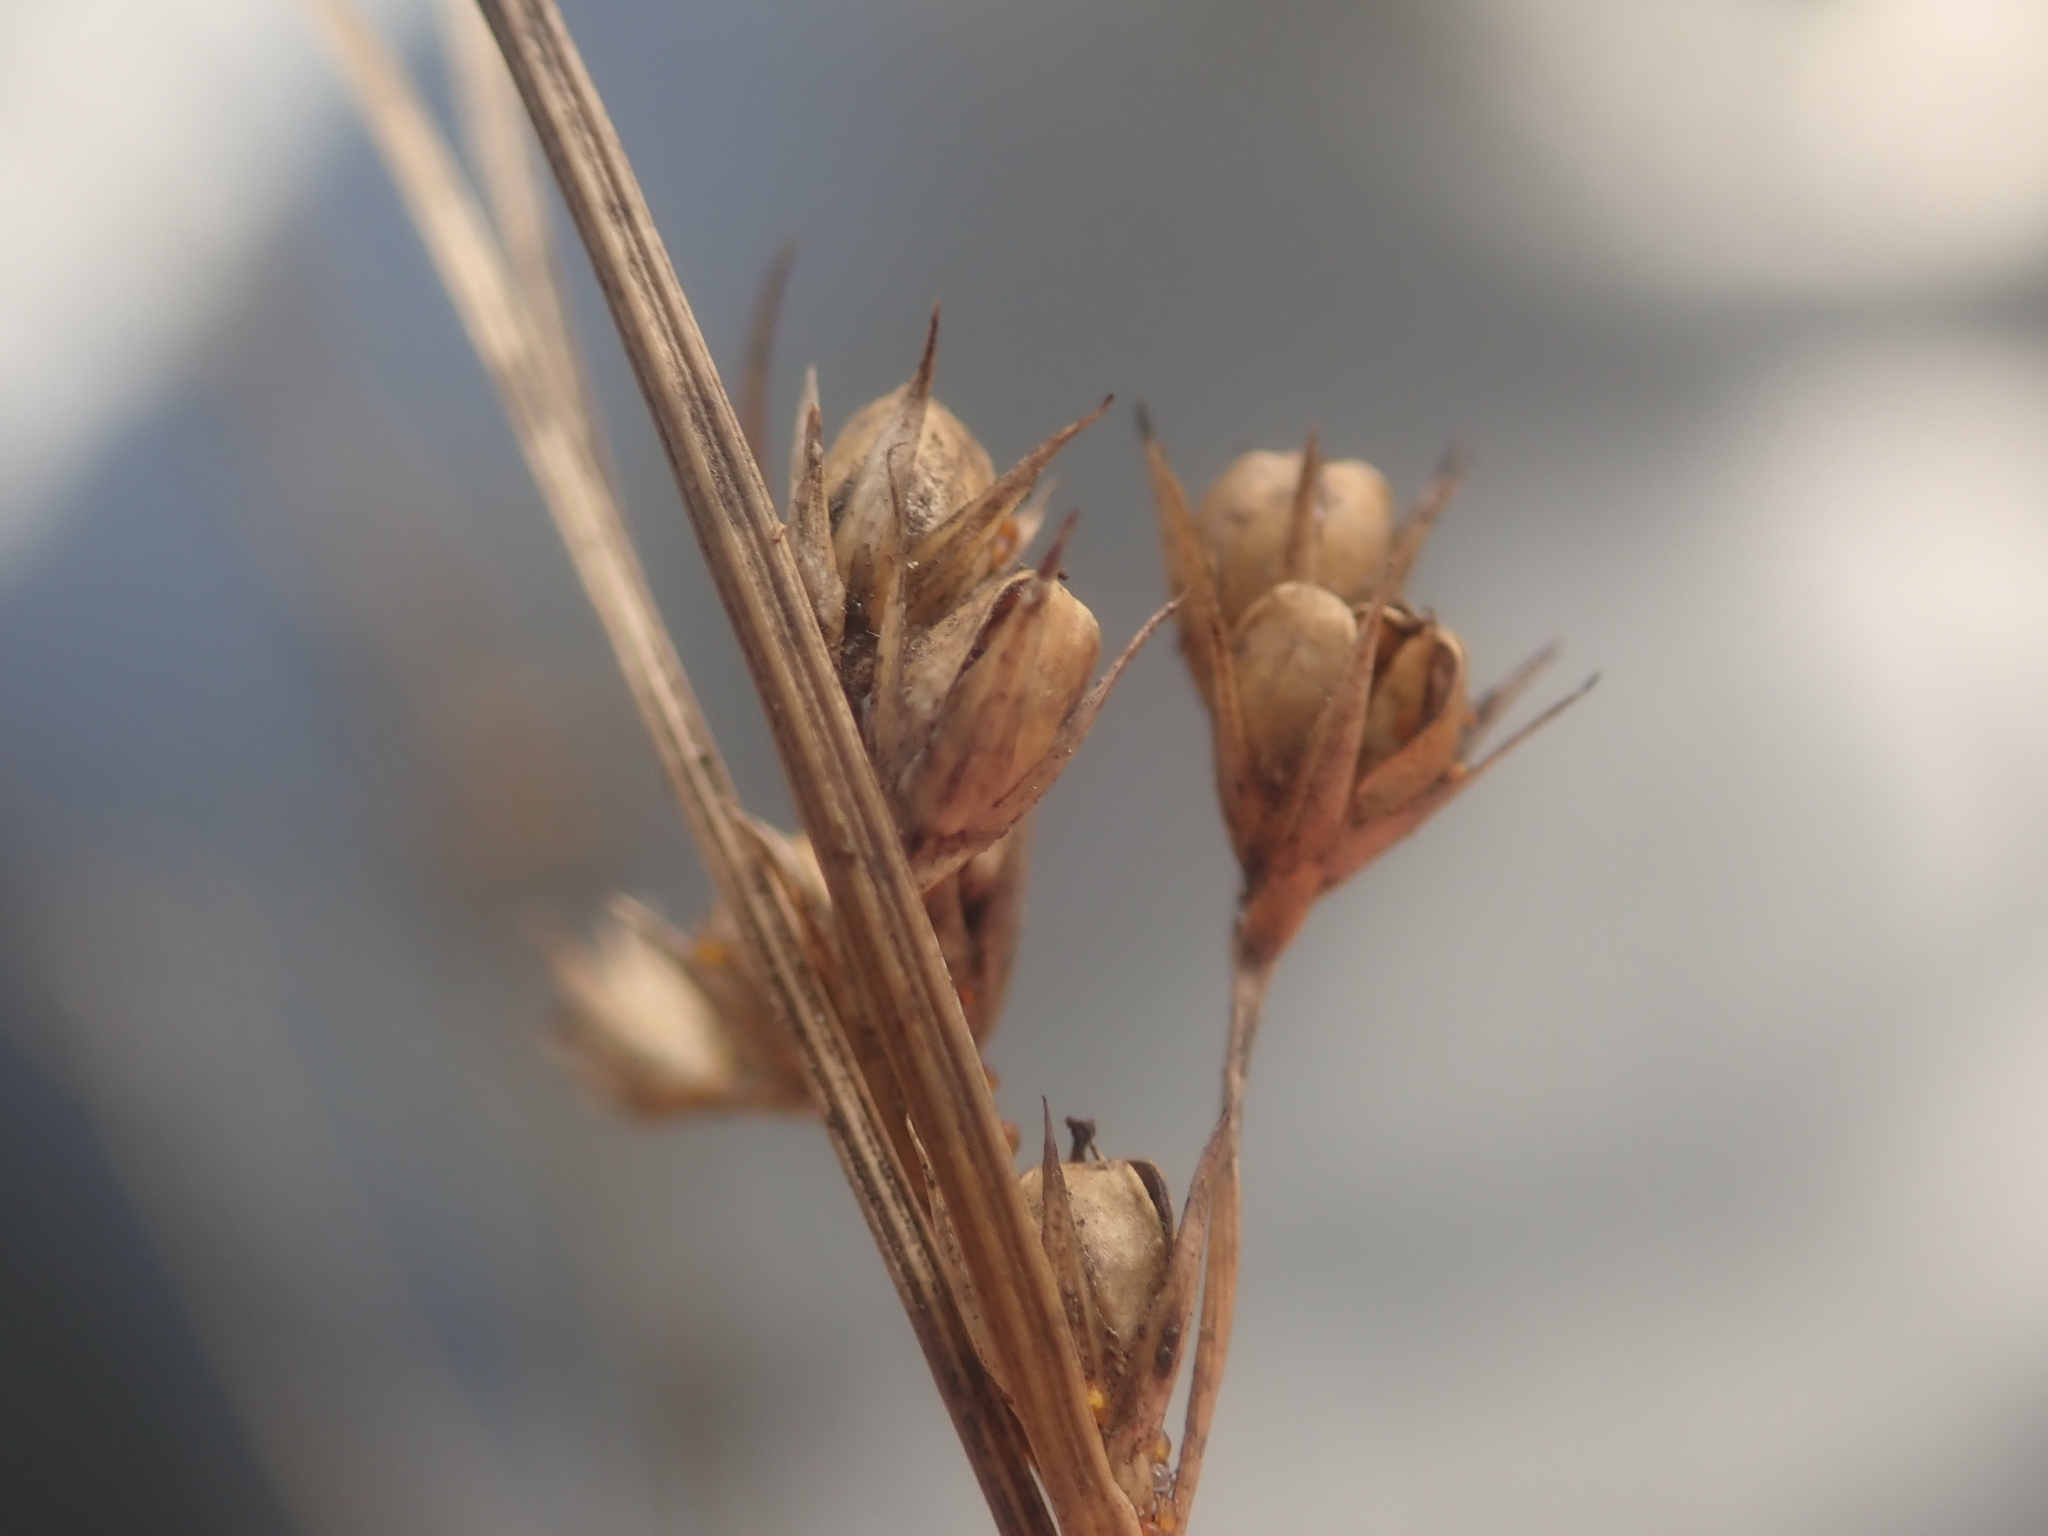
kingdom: Plantae
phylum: Tracheophyta
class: Liliopsida
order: Poales
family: Juncaceae
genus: Juncus
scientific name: Juncus tenuis
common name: Slender rush
